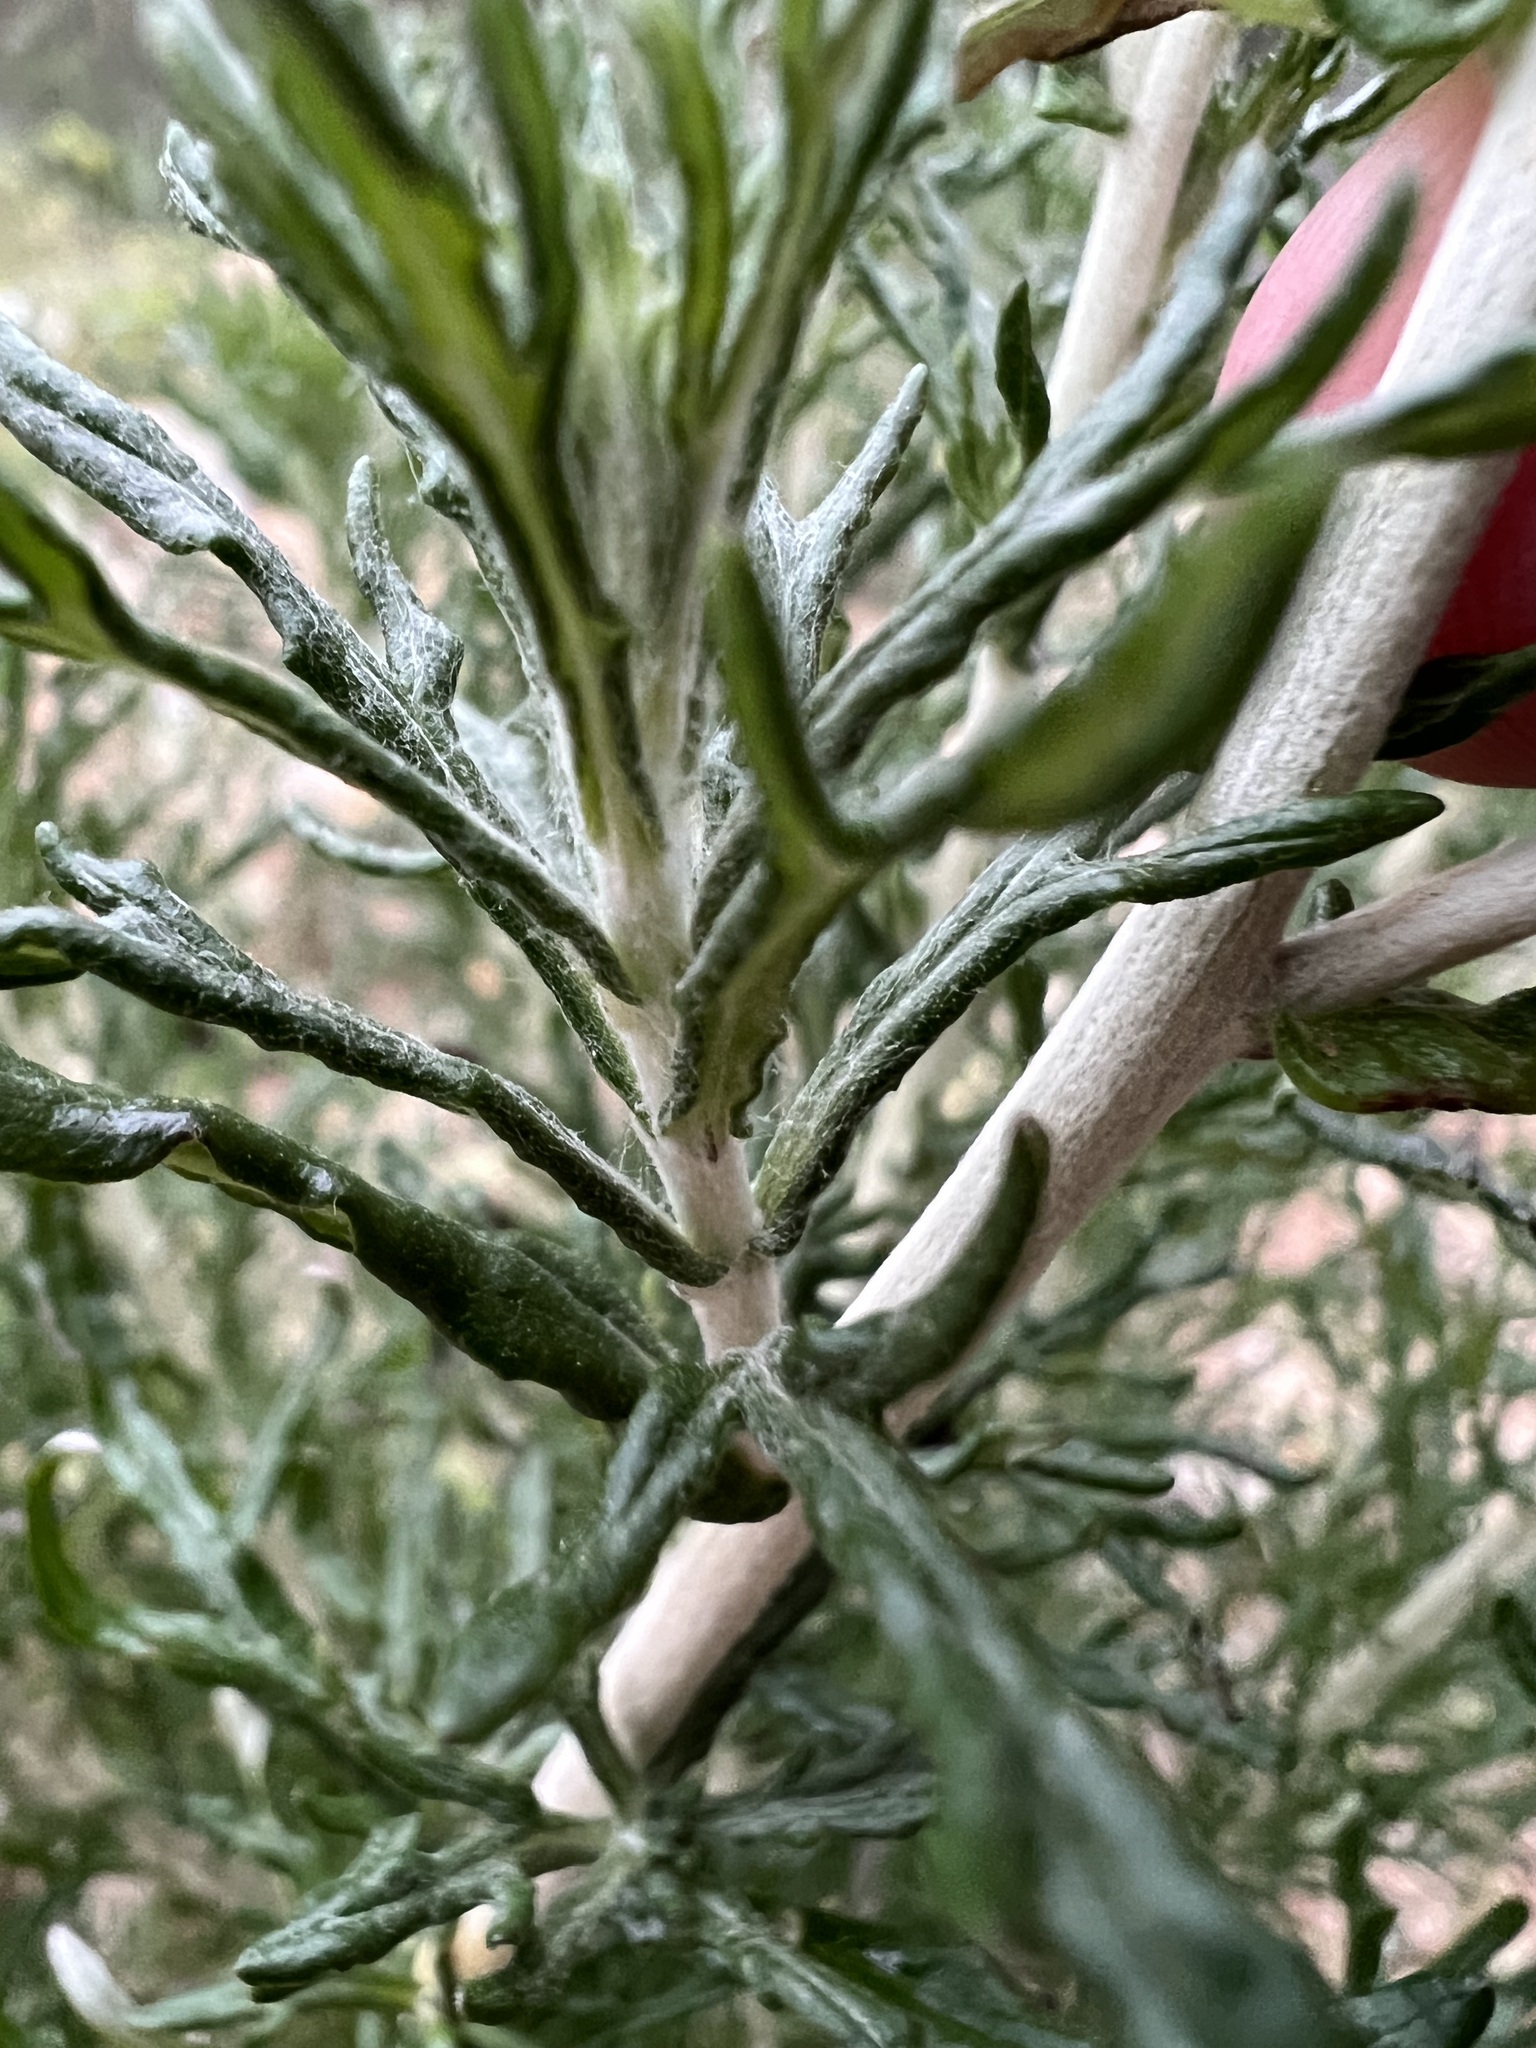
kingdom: Plantae
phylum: Tracheophyta
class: Magnoliopsida
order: Asterales
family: Asteraceae
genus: Eriophyllum
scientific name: Eriophyllum confertiflorum
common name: Golden-yarrow
